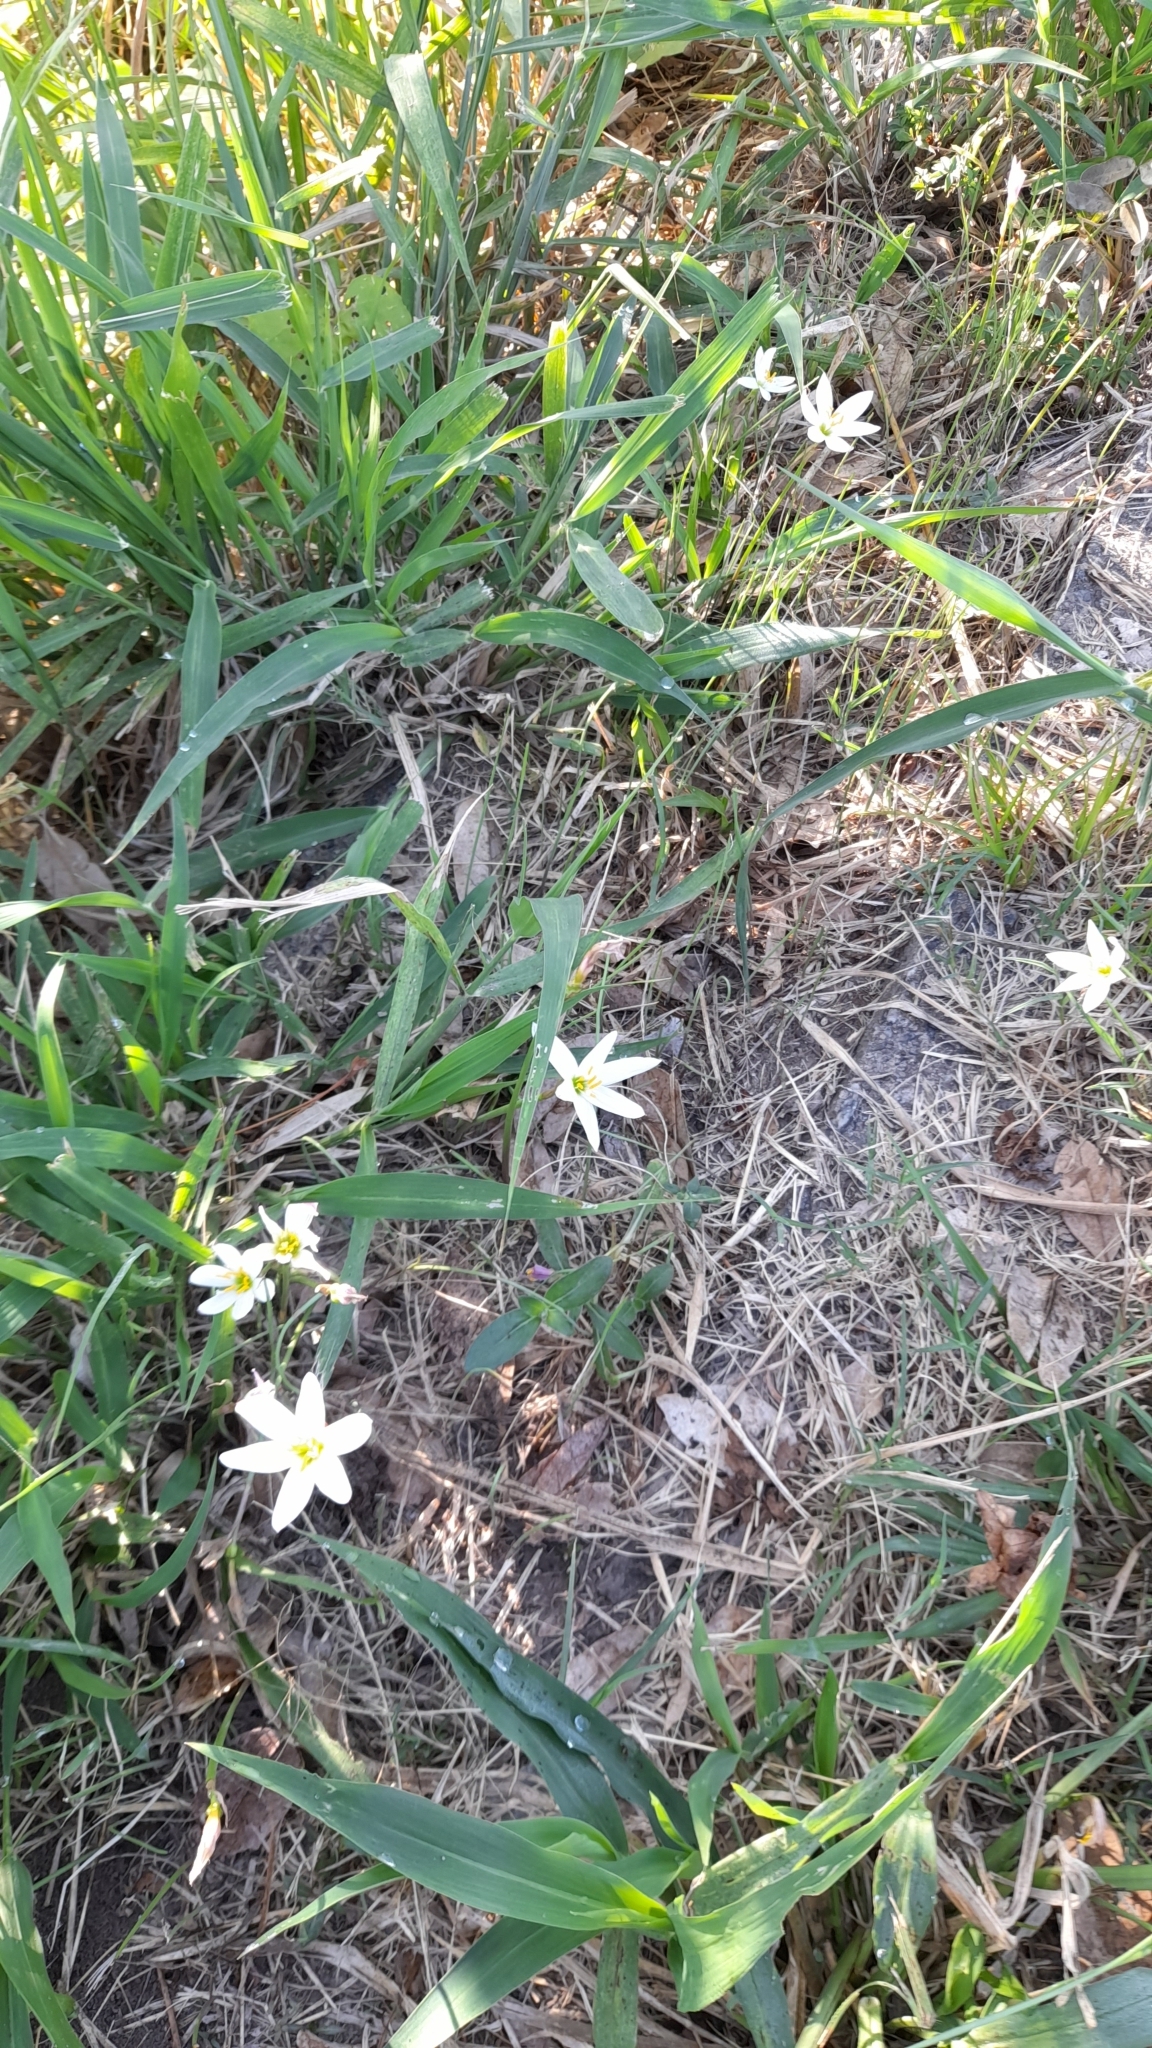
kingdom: Plantae
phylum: Tracheophyta
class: Liliopsida
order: Asparagales
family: Amaryllidaceae
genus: Zephyranthes
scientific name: Zephyranthes candida
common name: Autumn zephyrlily
